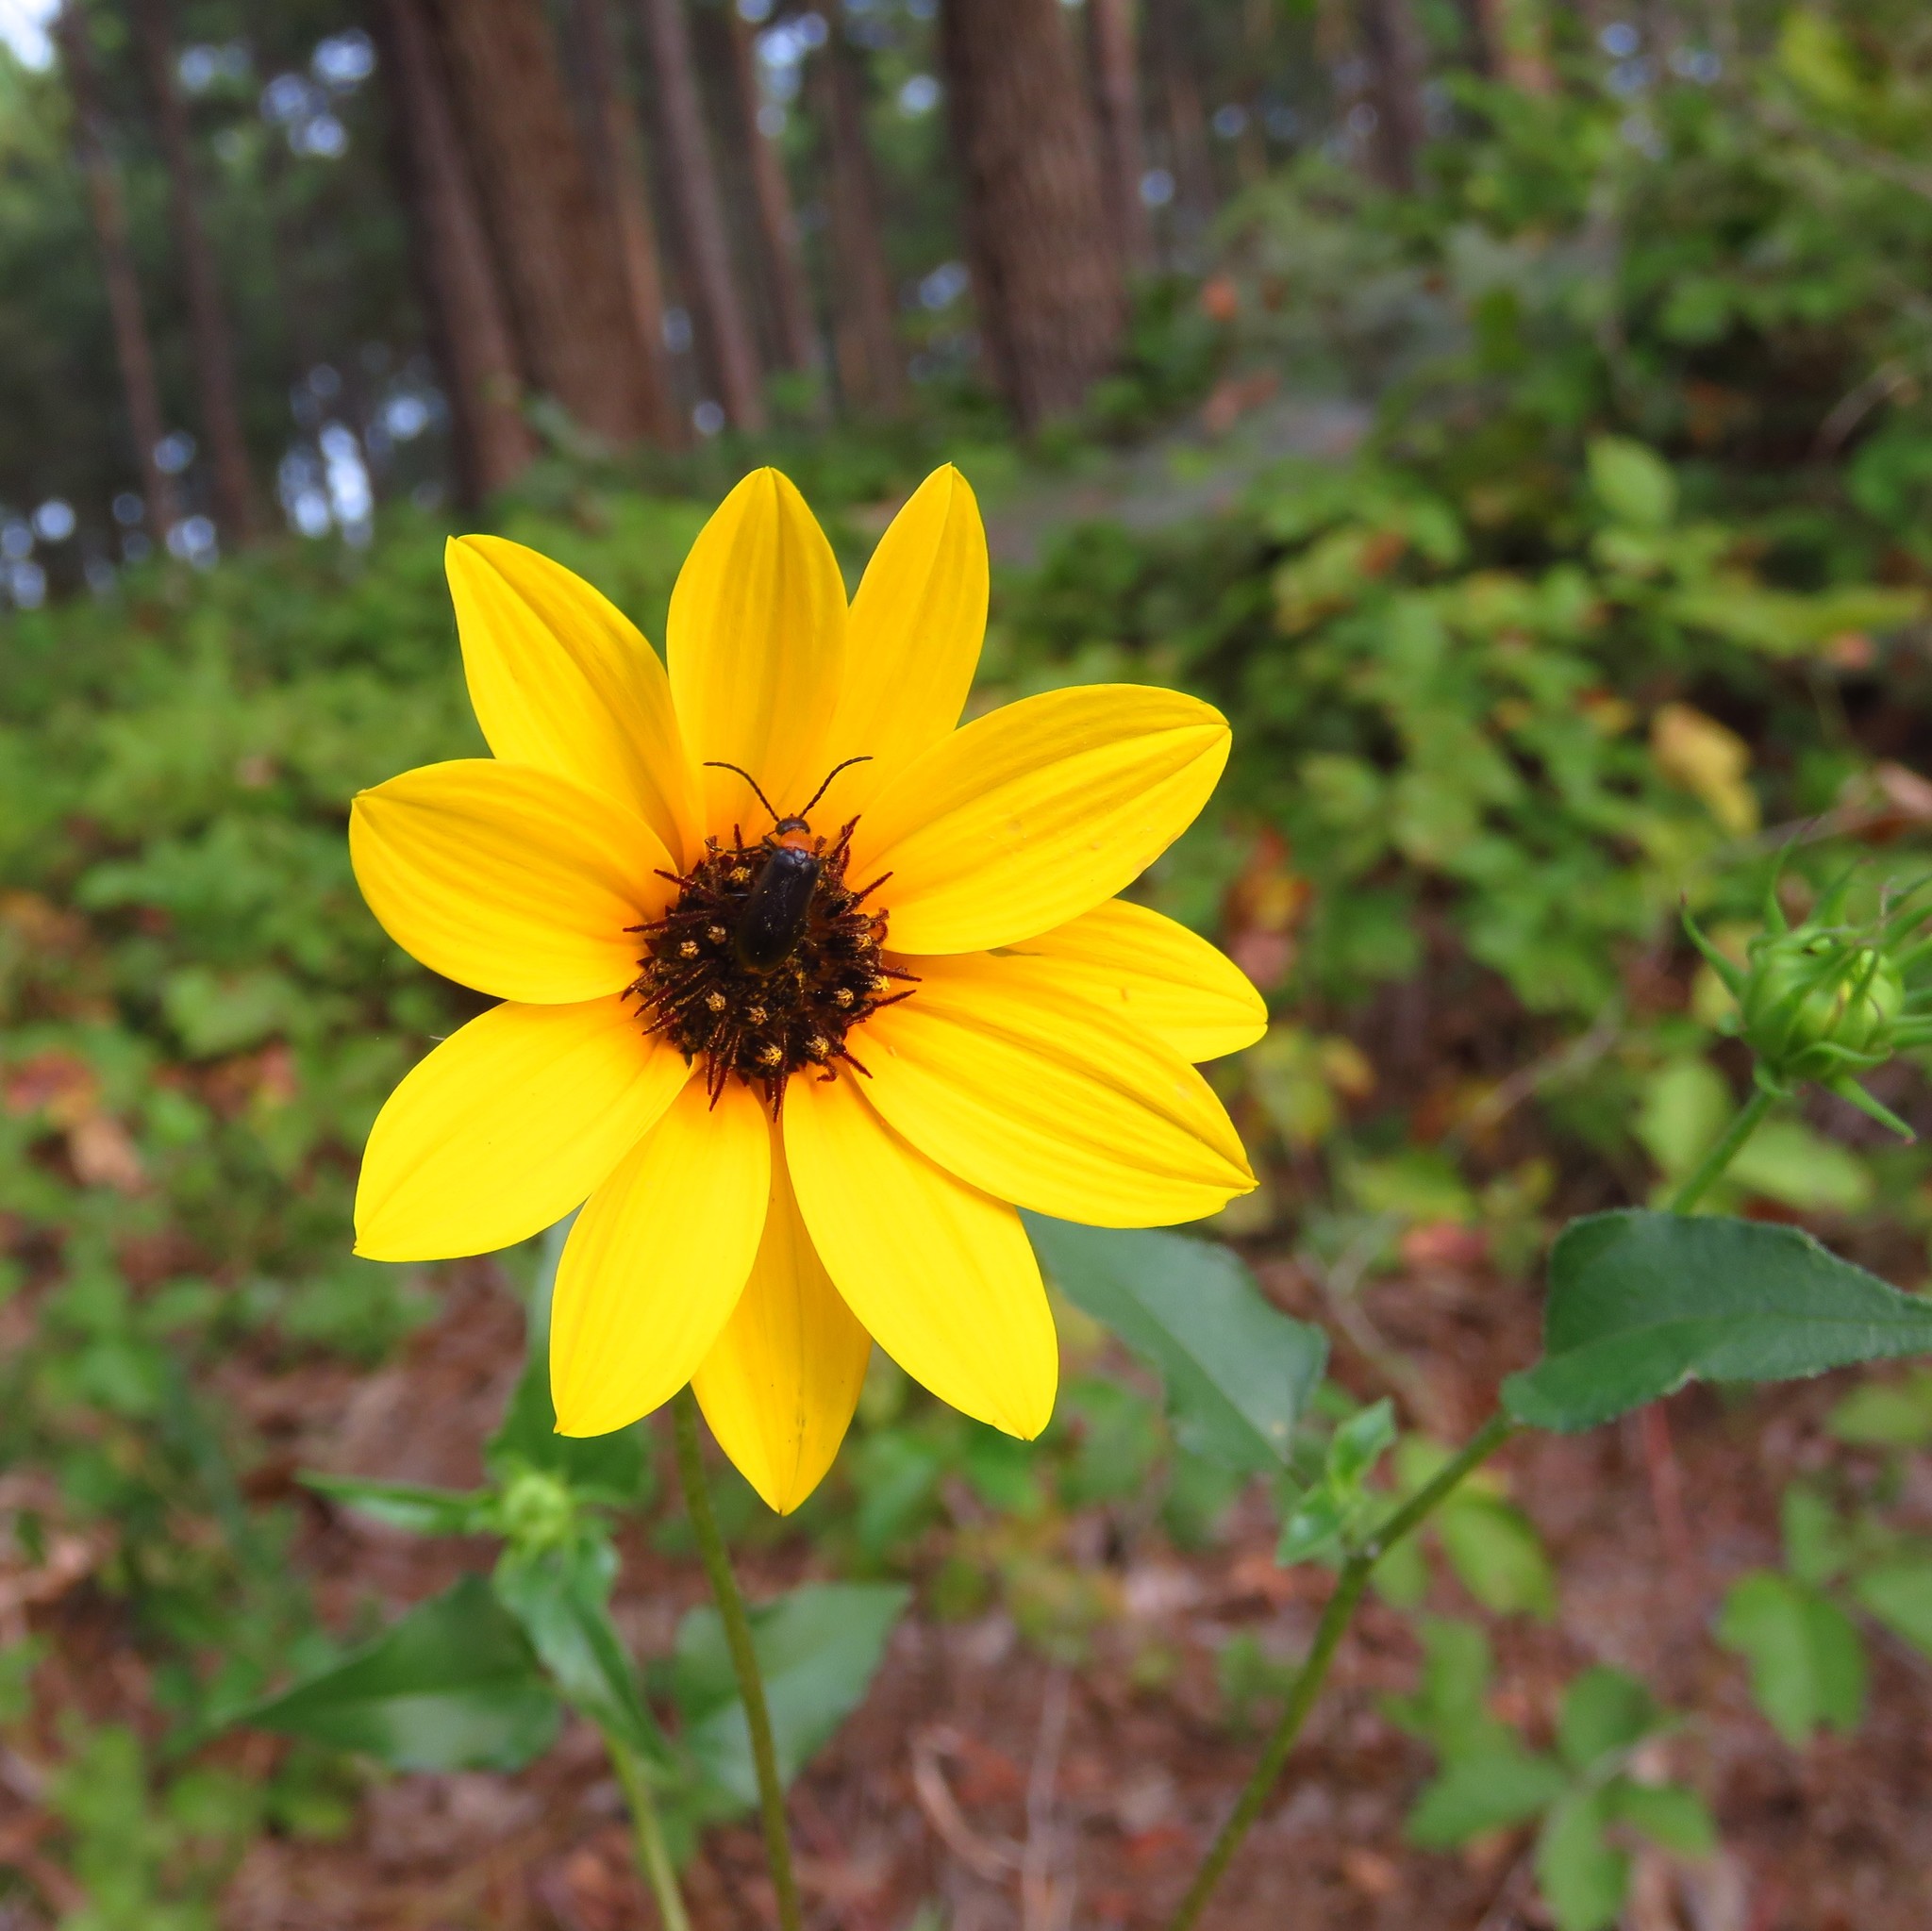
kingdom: Plantae
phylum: Tracheophyta
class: Magnoliopsida
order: Asterales
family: Asteraceae
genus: Helianthus
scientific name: Helianthus debilis
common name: Weak sunflower
